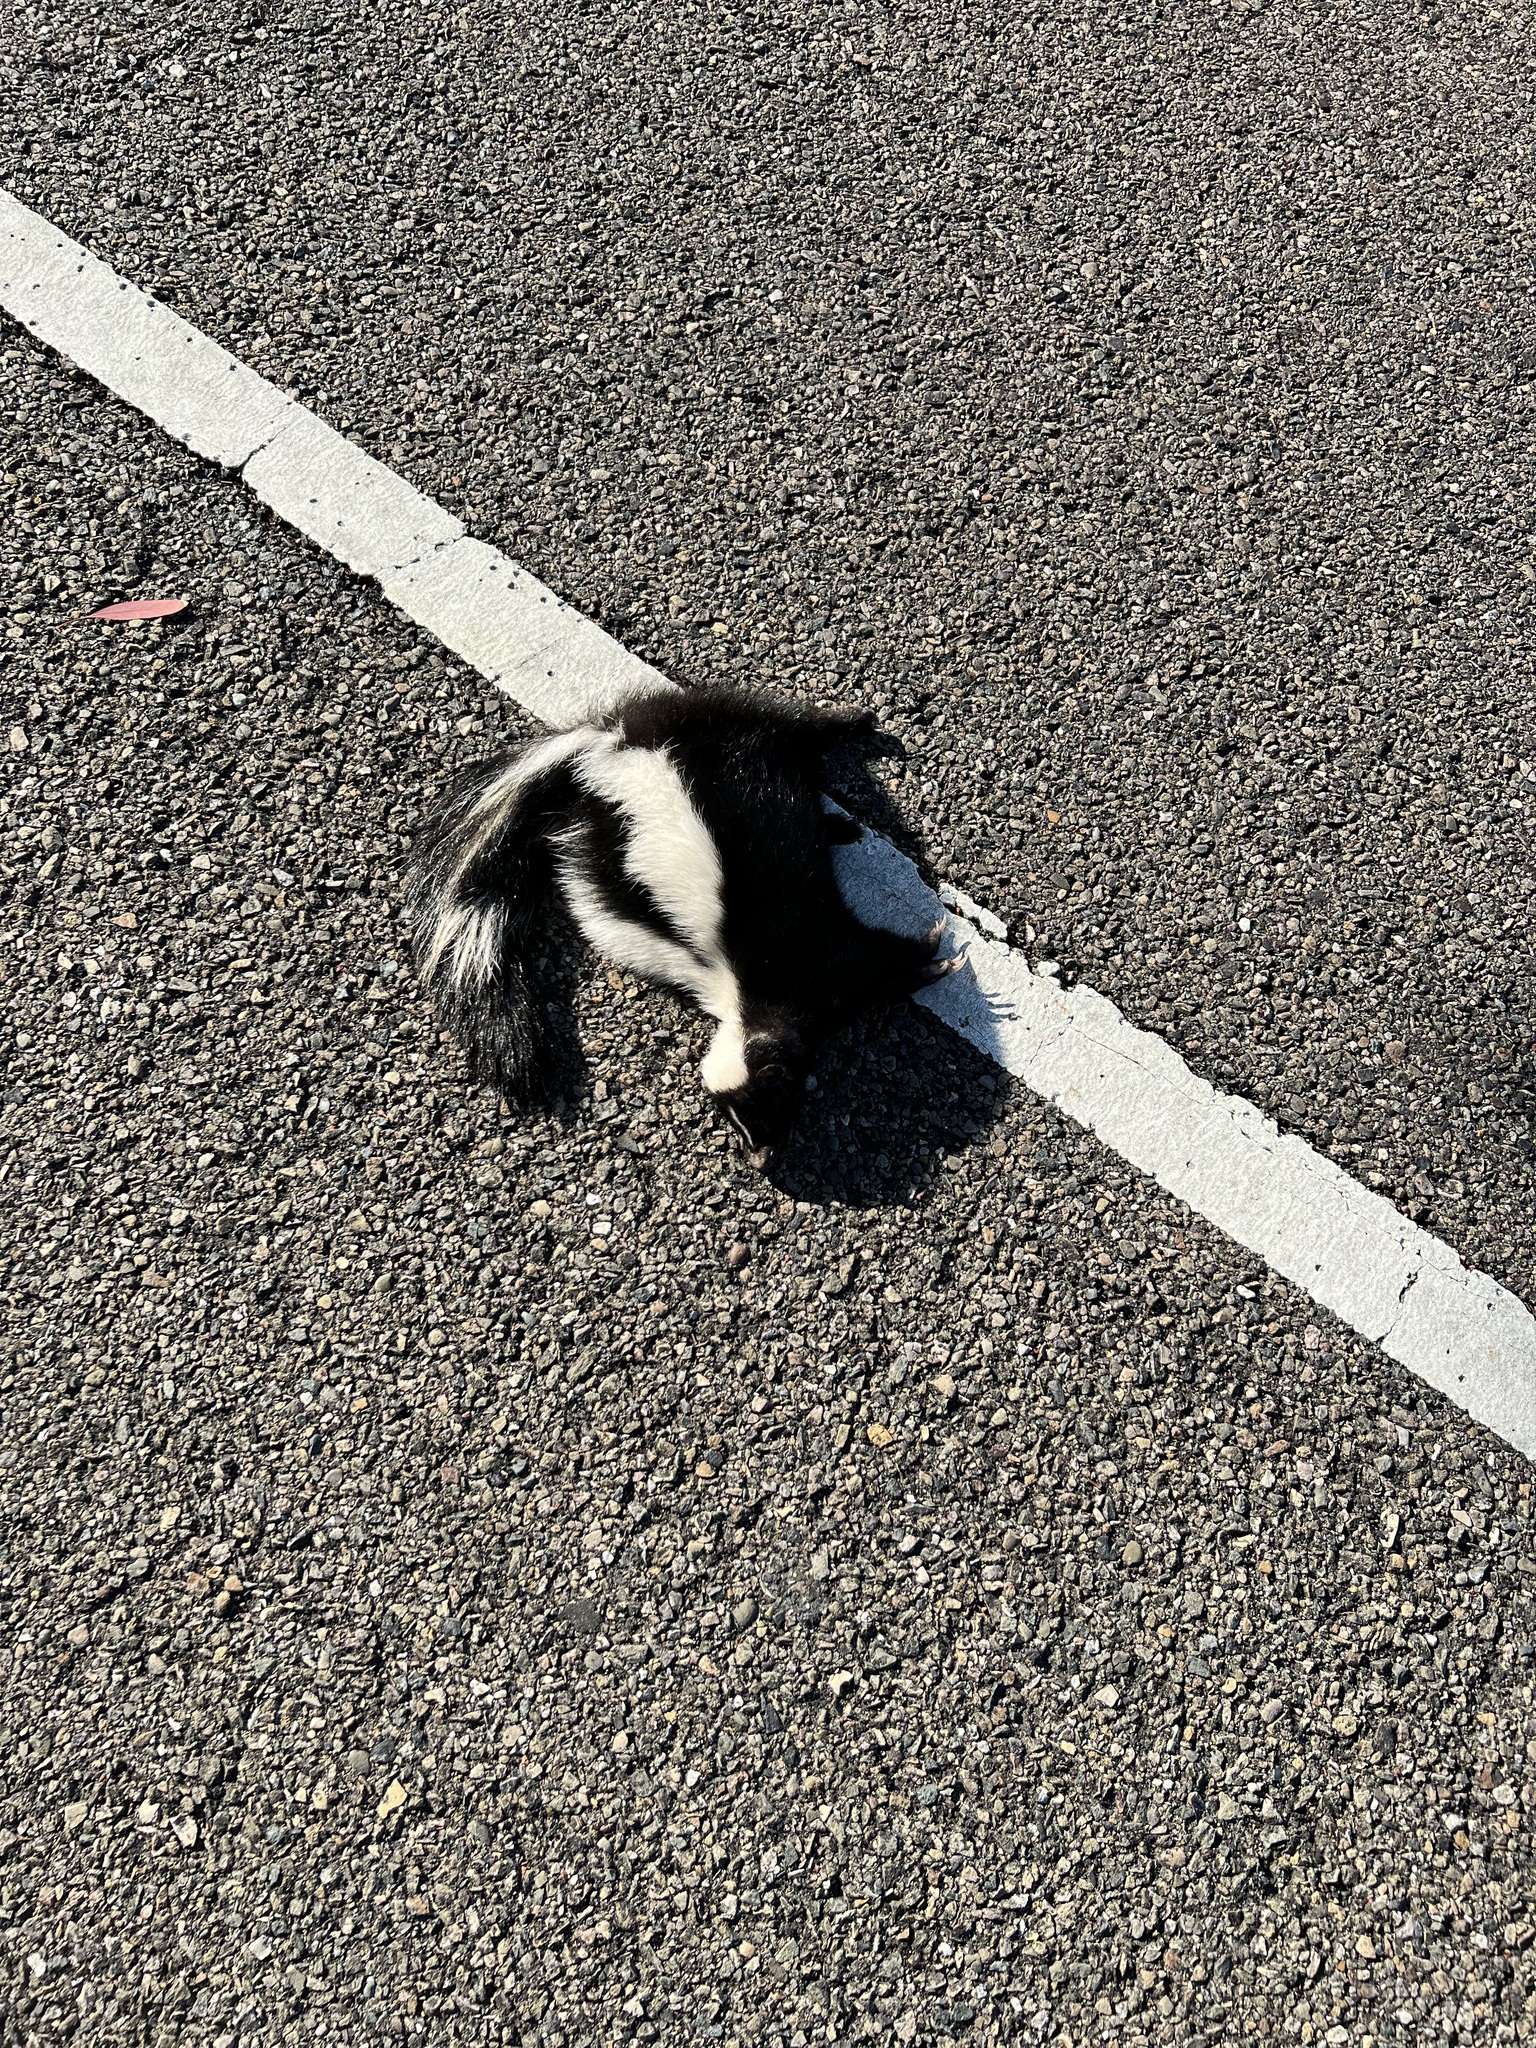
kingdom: Animalia
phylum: Chordata
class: Mammalia
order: Carnivora
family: Mephitidae
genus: Mephitis
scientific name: Mephitis mephitis
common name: Striped skunk
